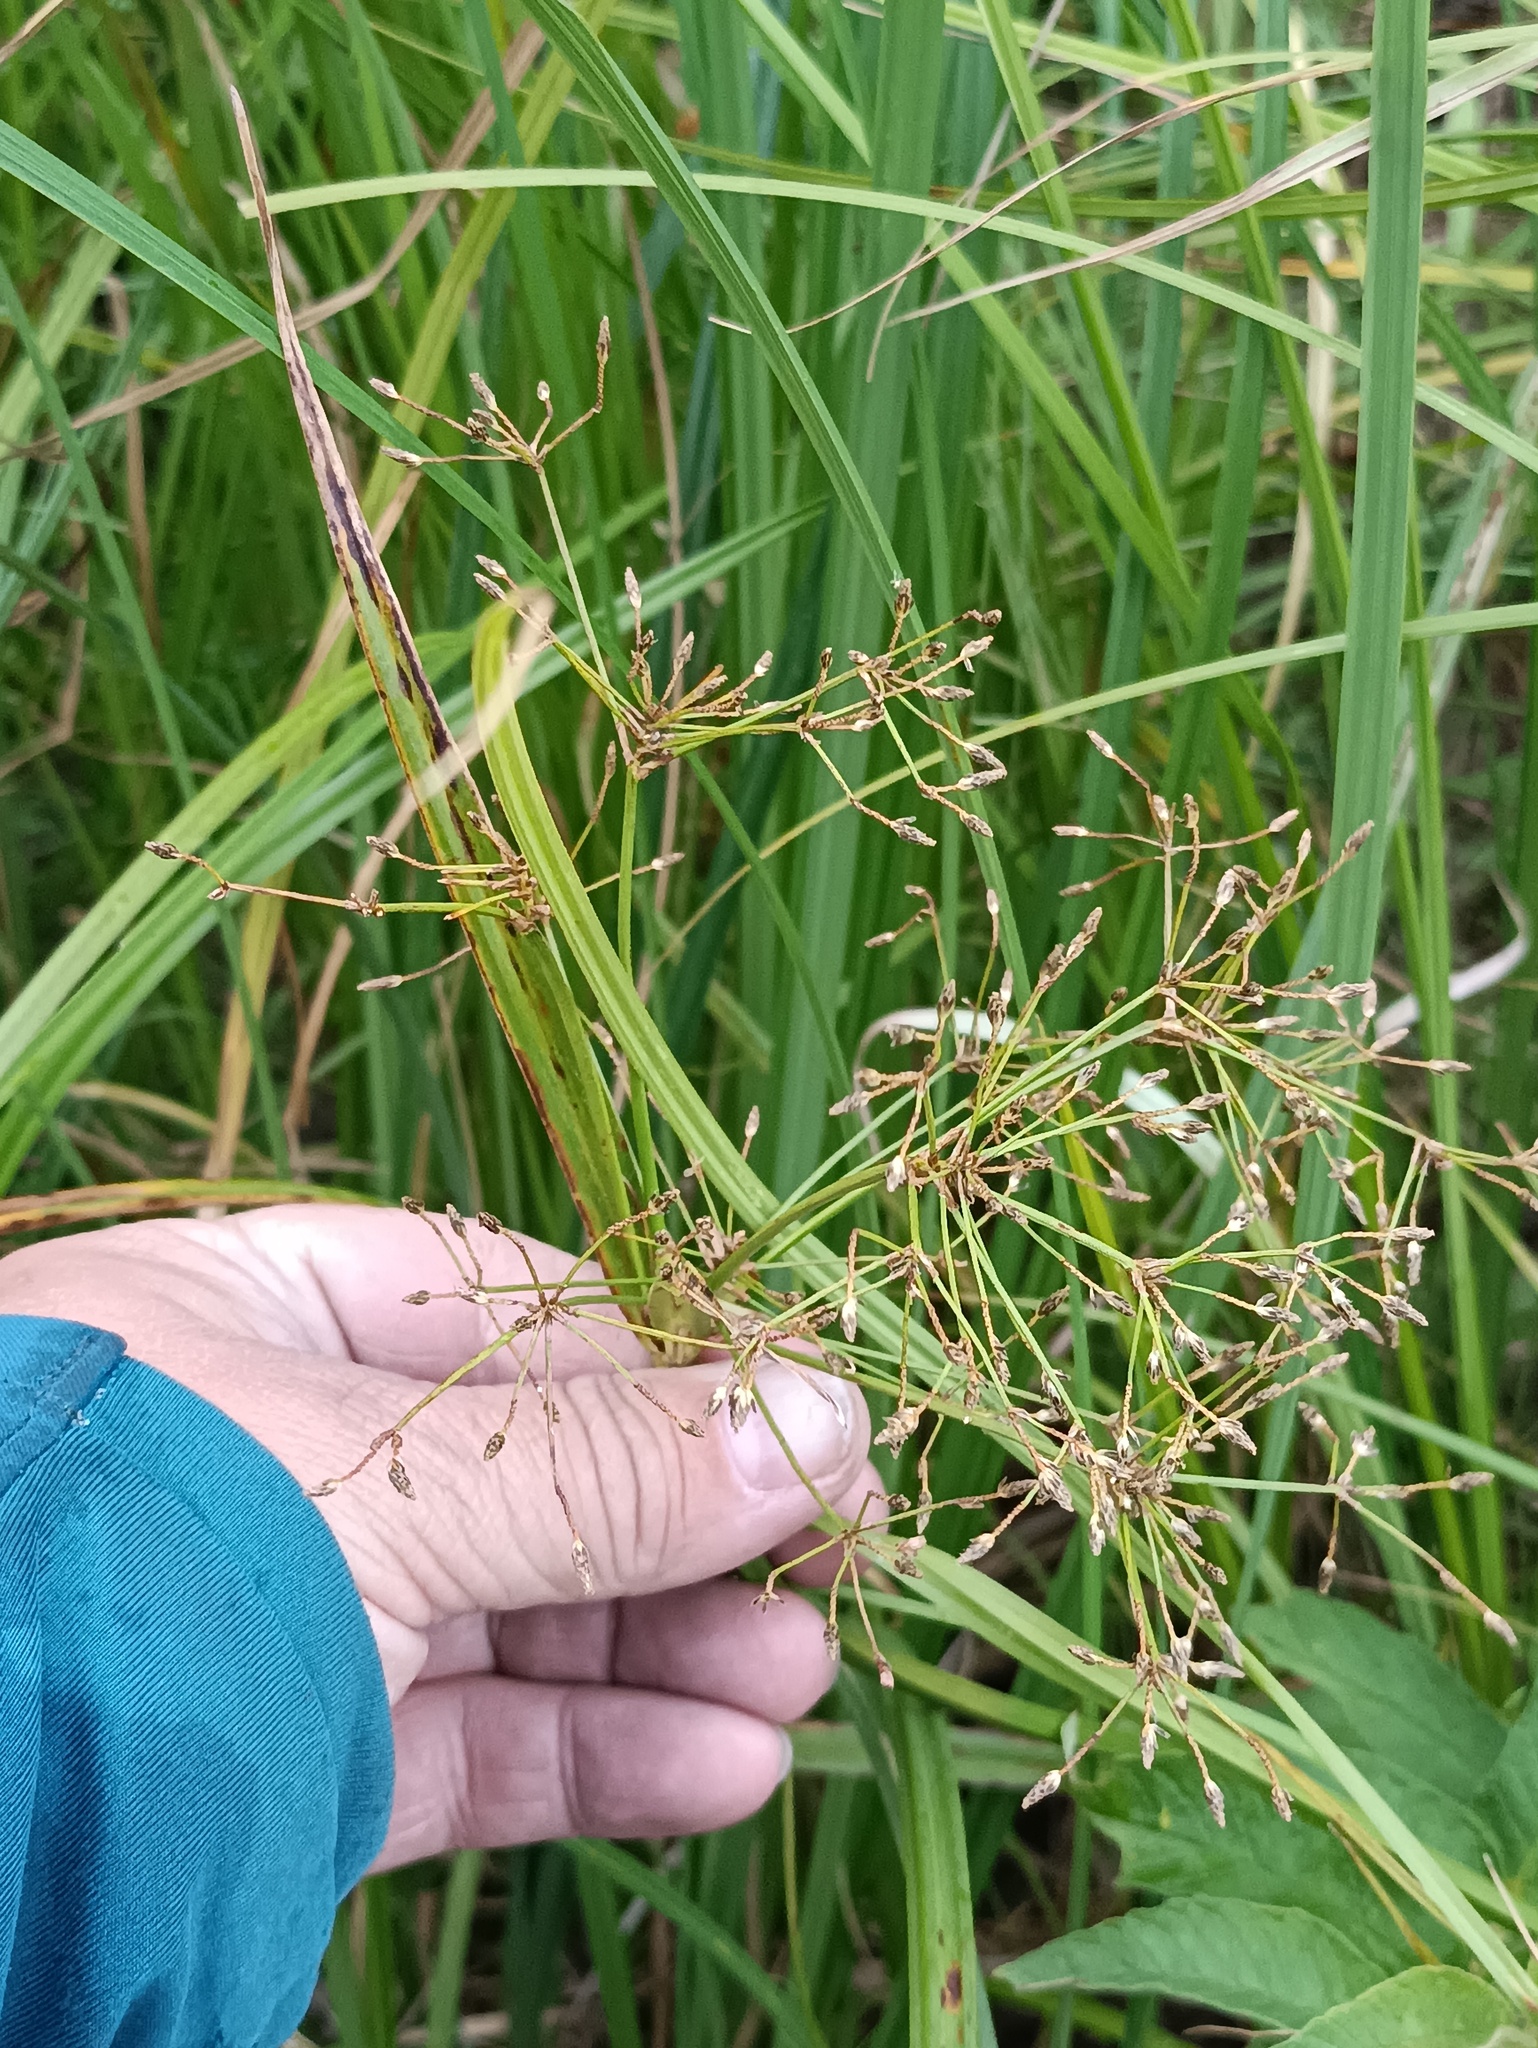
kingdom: Plantae
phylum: Tracheophyta
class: Liliopsida
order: Poales
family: Cyperaceae
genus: Scirpus
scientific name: Scirpus radicans
